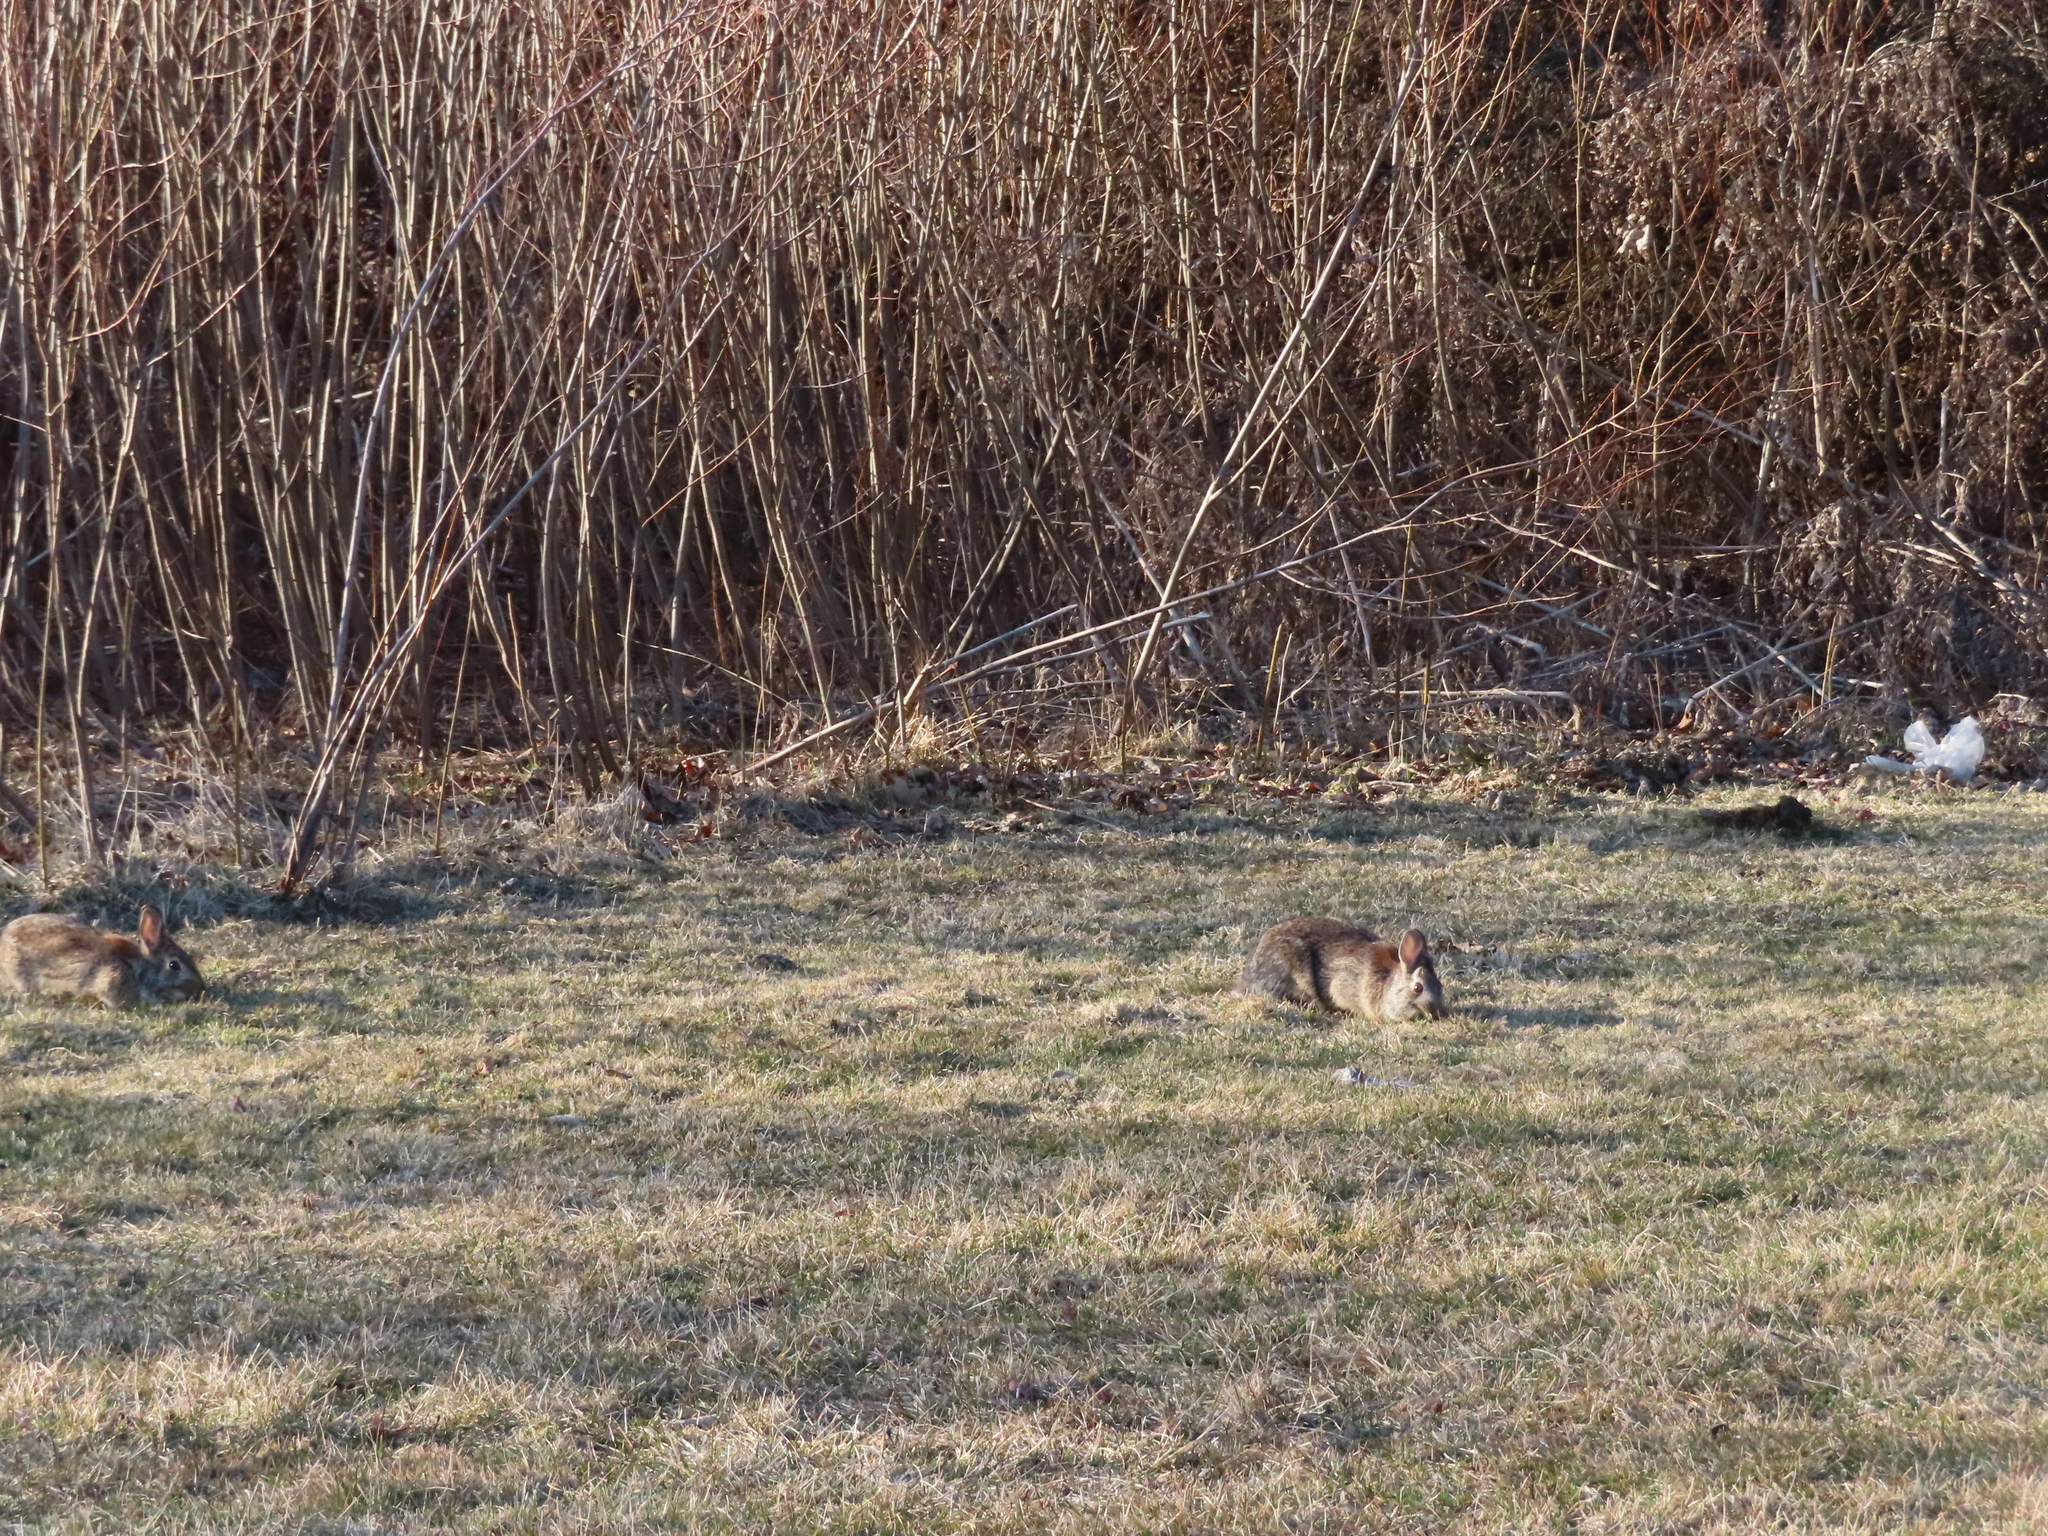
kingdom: Animalia
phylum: Chordata
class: Mammalia
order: Lagomorpha
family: Leporidae
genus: Sylvilagus
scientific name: Sylvilagus floridanus
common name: Eastern cottontail
